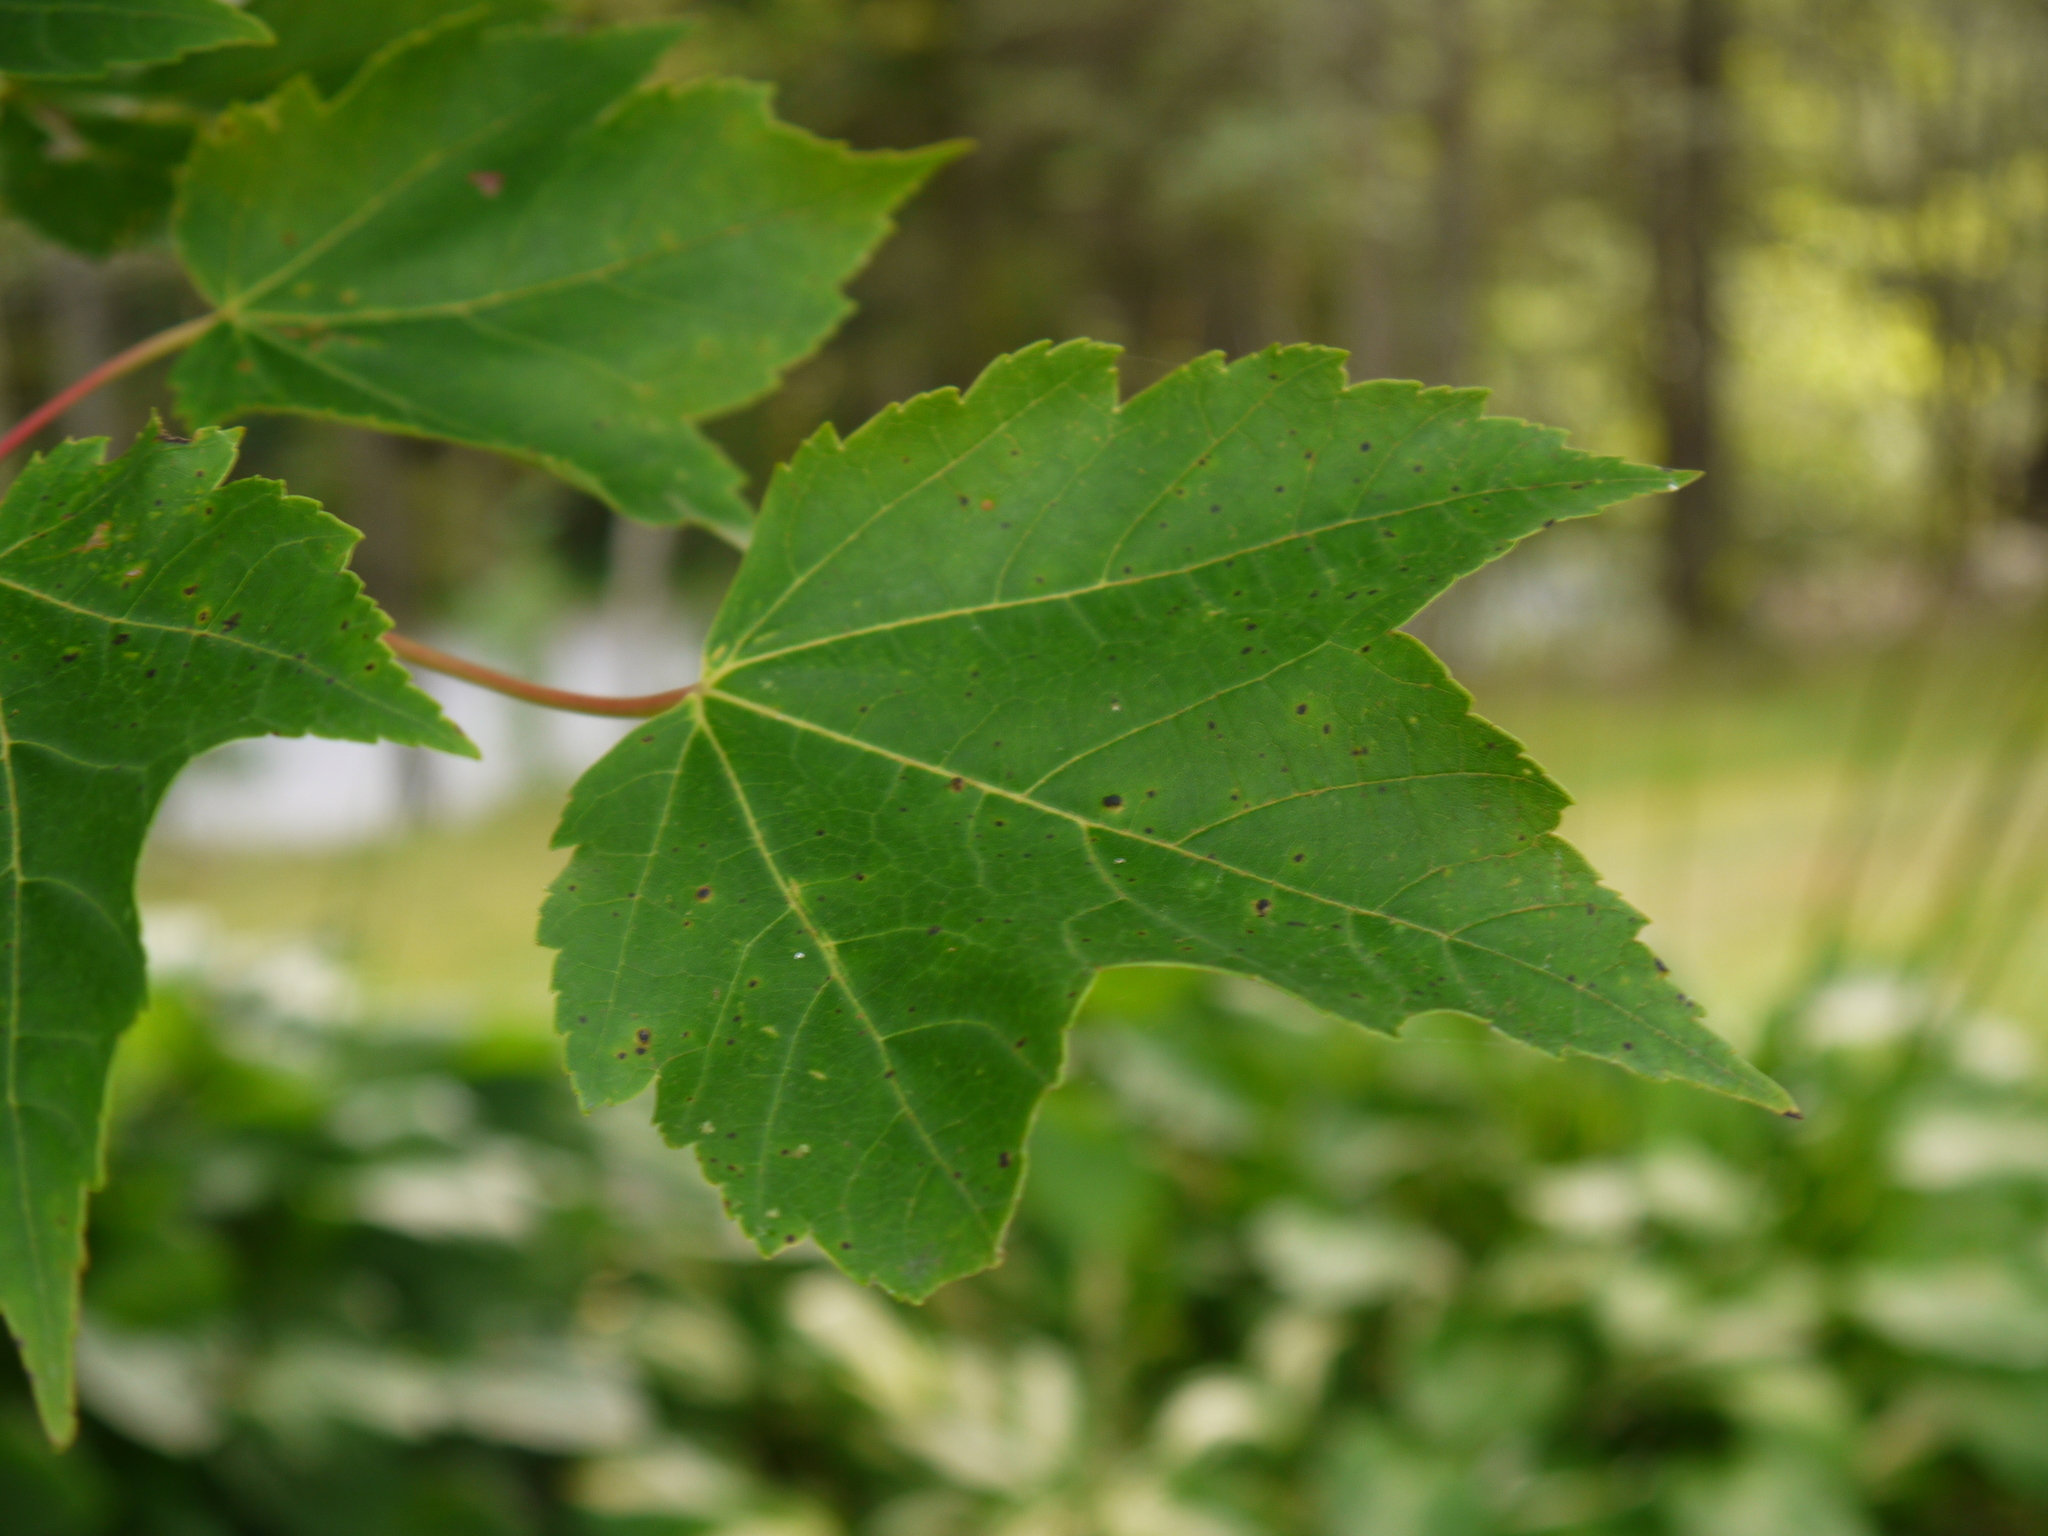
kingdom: Plantae
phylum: Tracheophyta
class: Magnoliopsida
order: Sapindales
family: Sapindaceae
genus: Acer
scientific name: Acer rubrum
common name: Red maple
